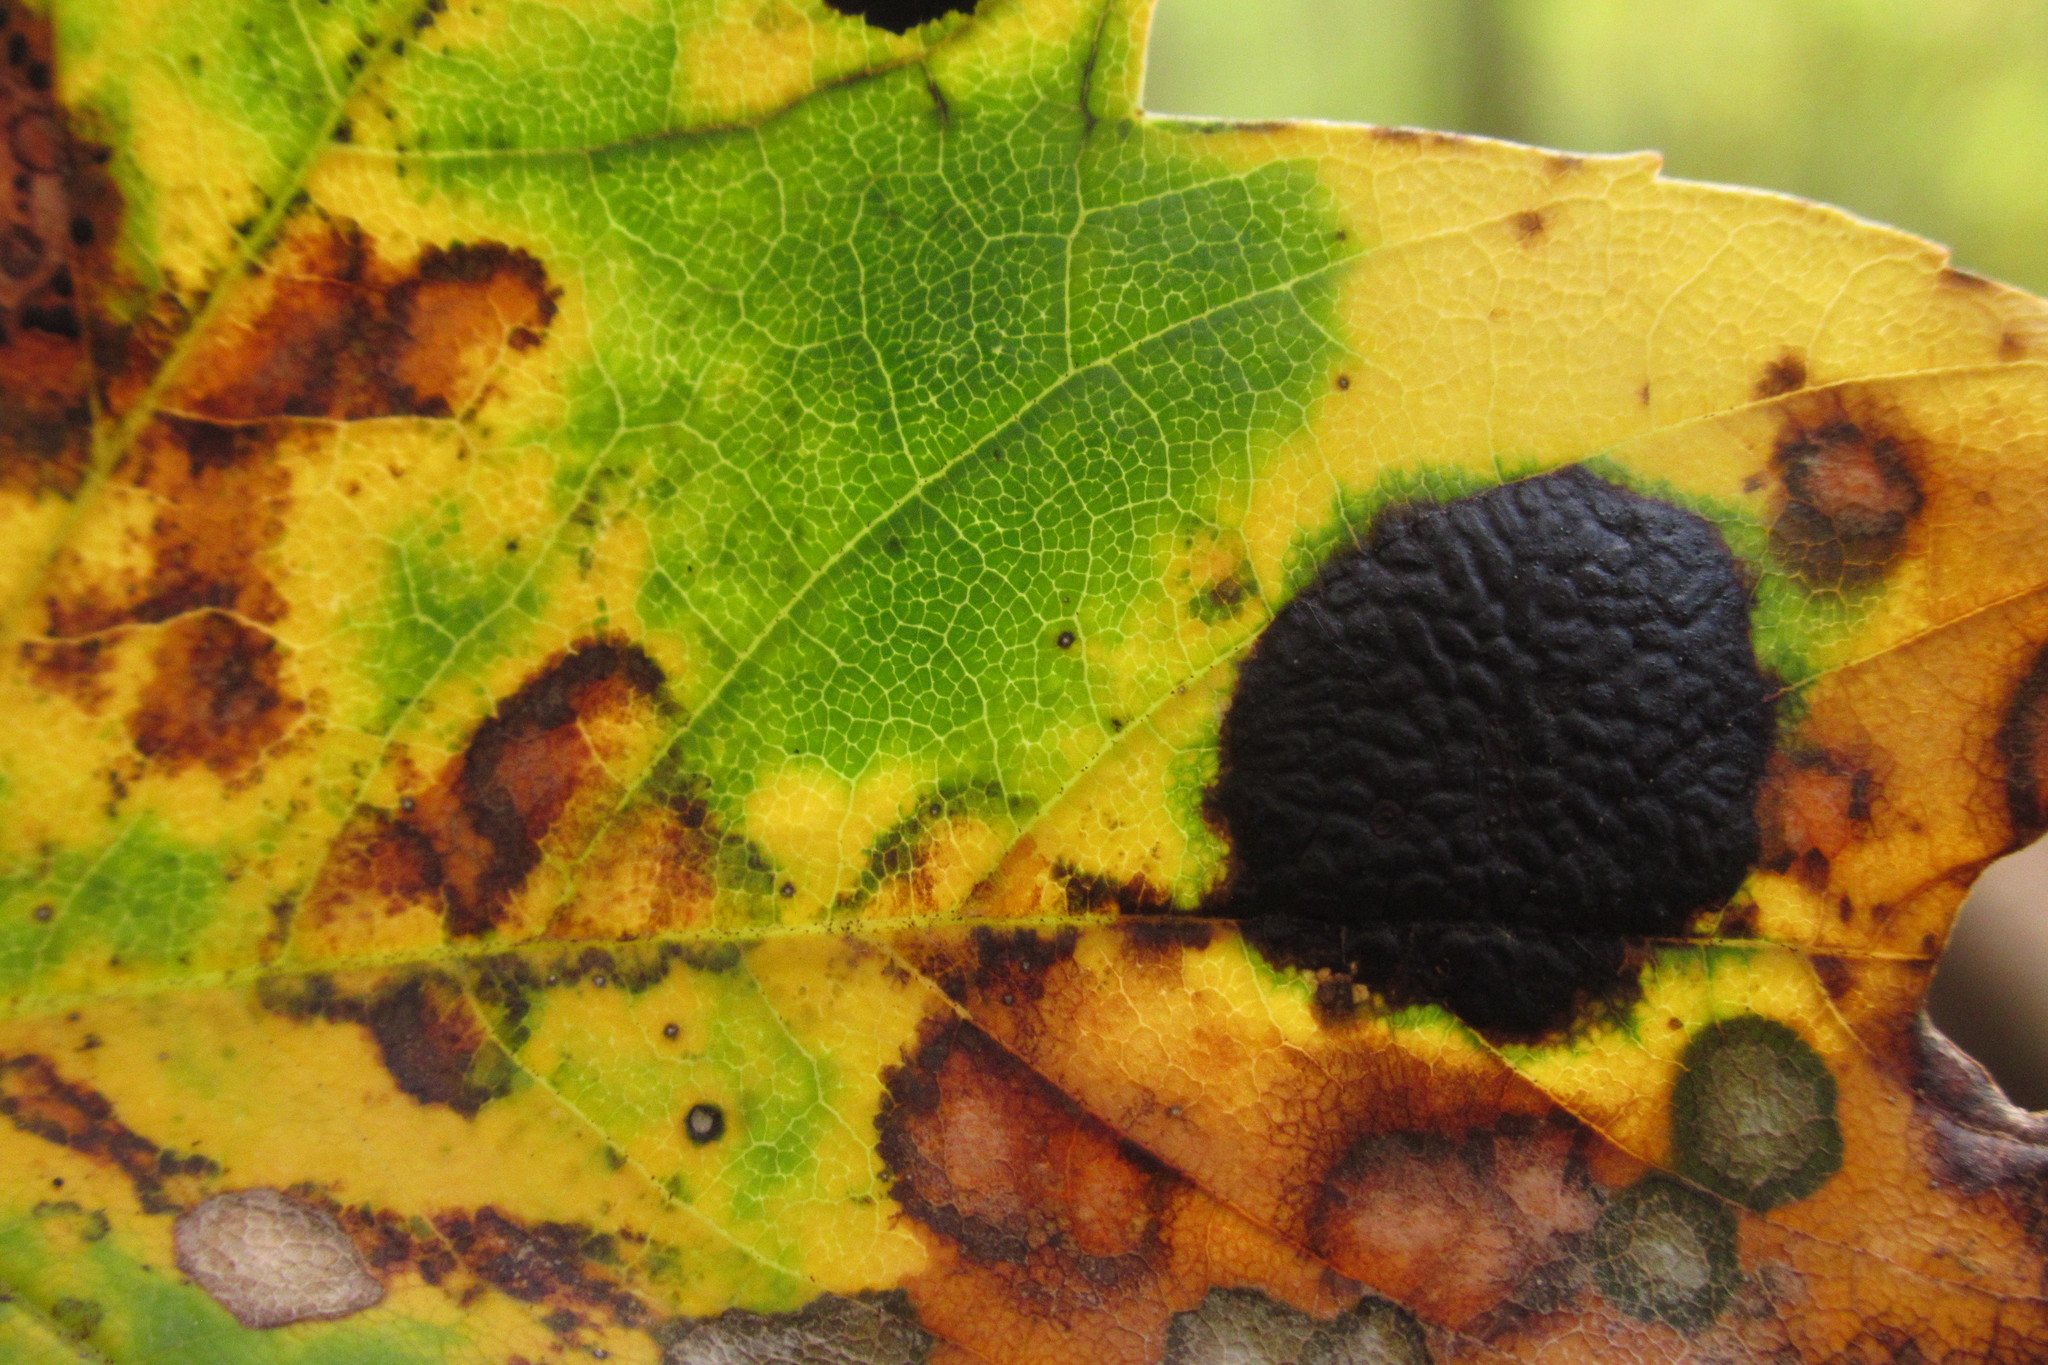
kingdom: Fungi
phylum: Ascomycota
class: Leotiomycetes
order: Rhytismatales
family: Rhytismataceae
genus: Rhytisma
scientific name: Rhytisma acerinum
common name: European tar spot
